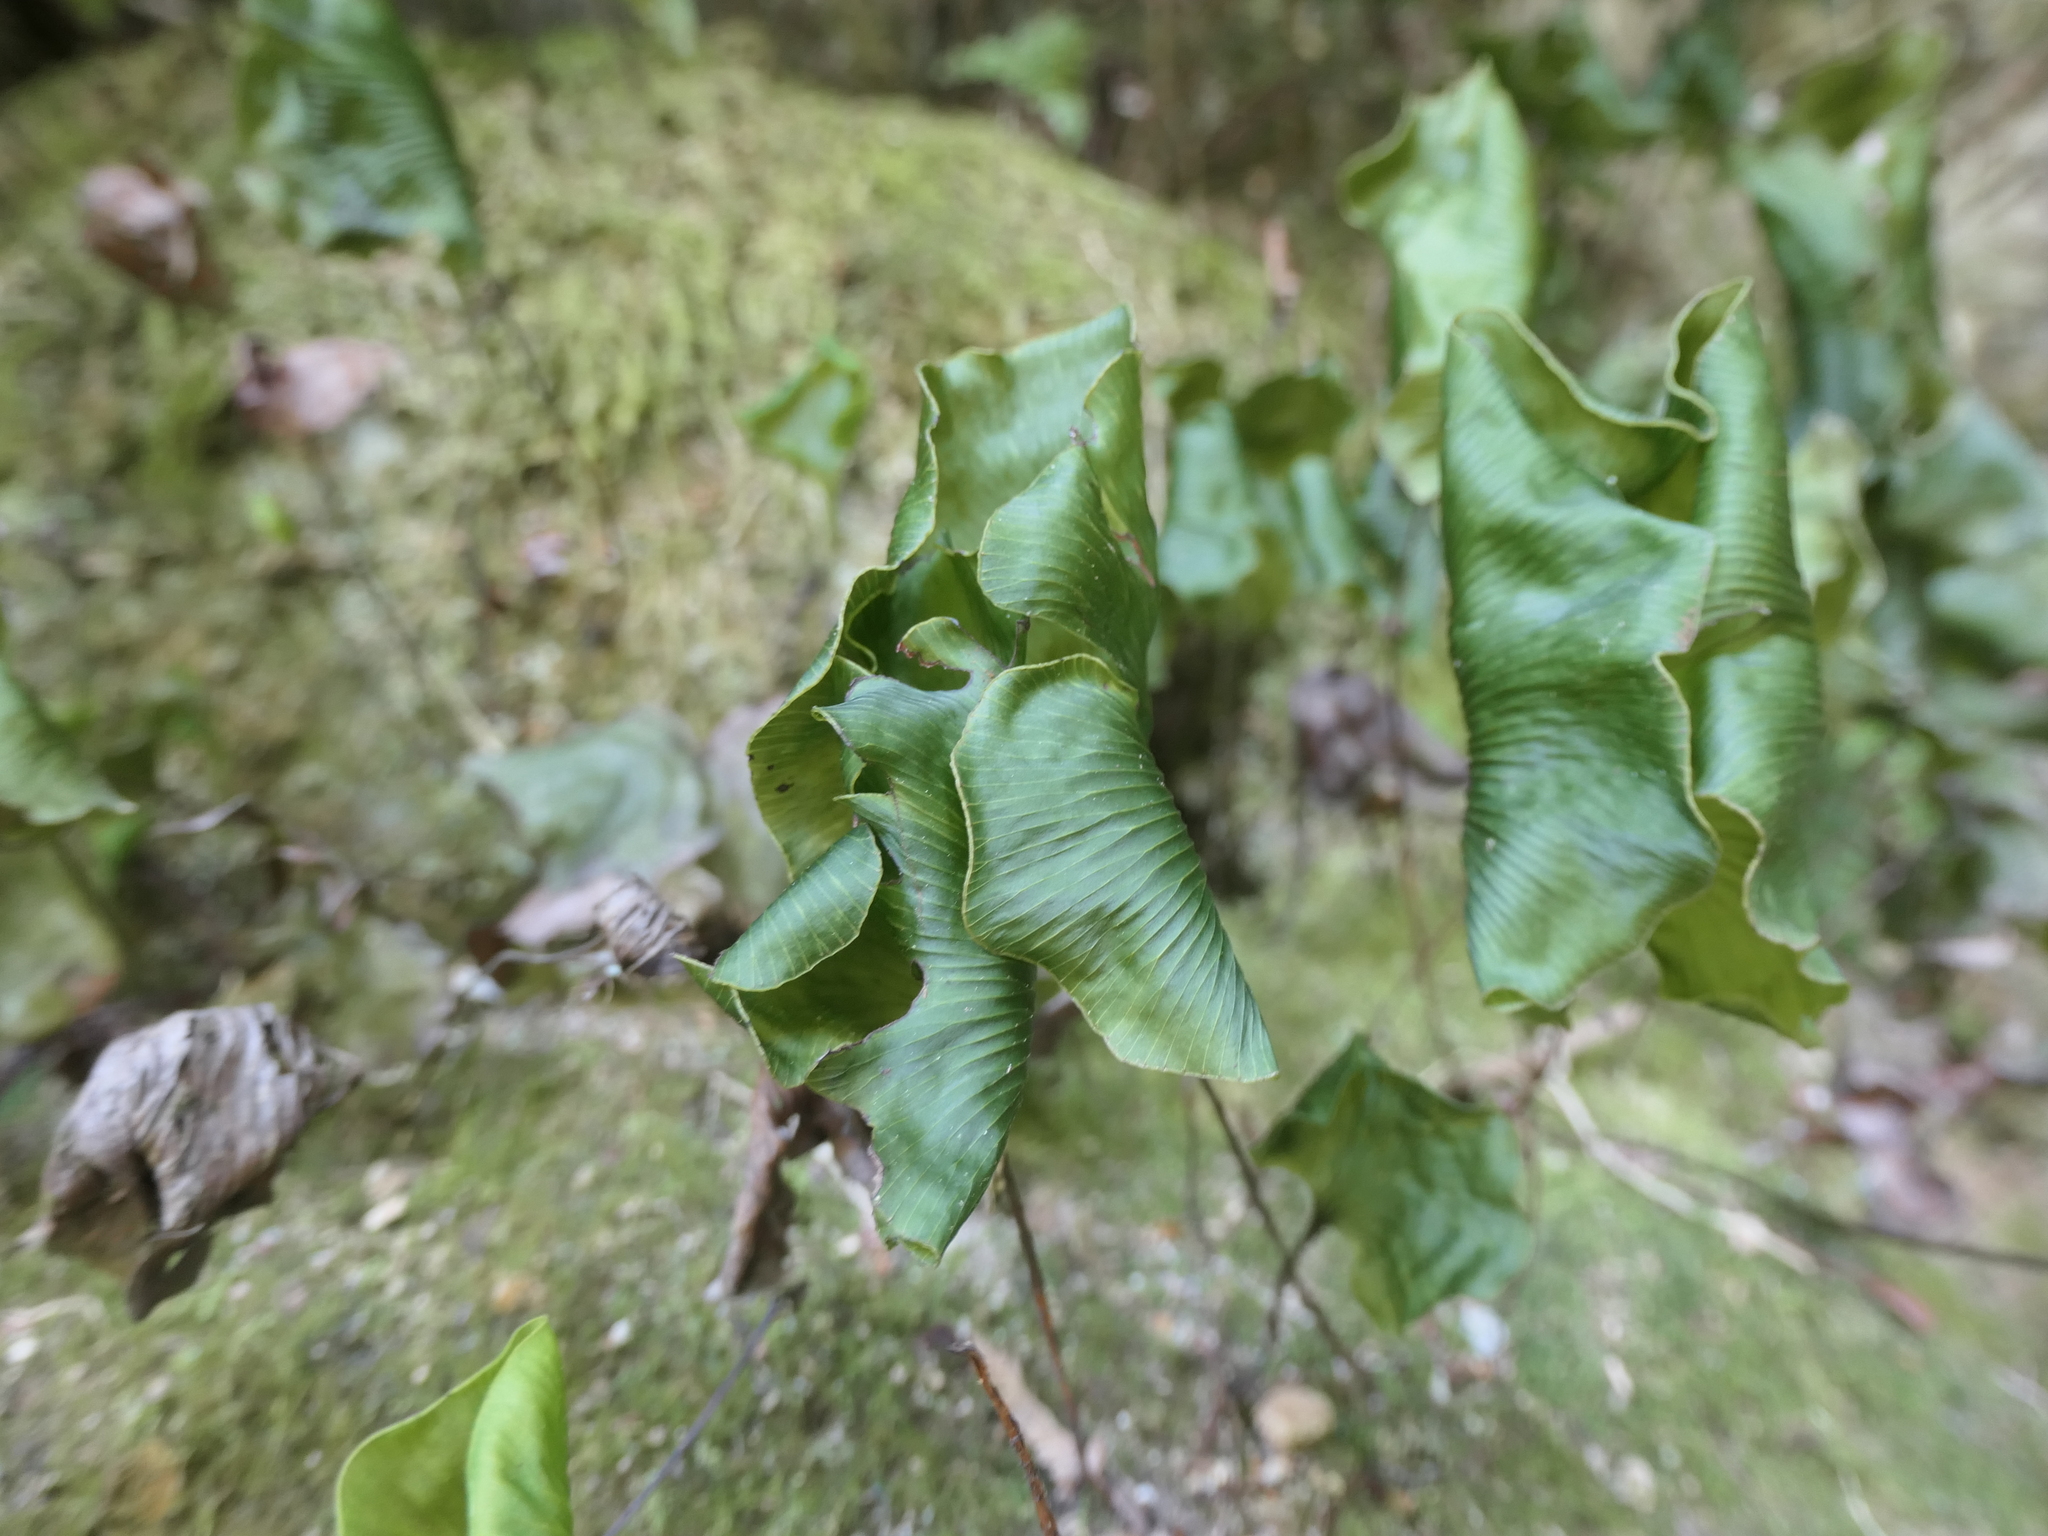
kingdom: Plantae
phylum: Tracheophyta
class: Polypodiopsida
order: Hymenophyllales
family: Hymenophyllaceae
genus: Hymenophyllum
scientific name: Hymenophyllum nephrophyllum
